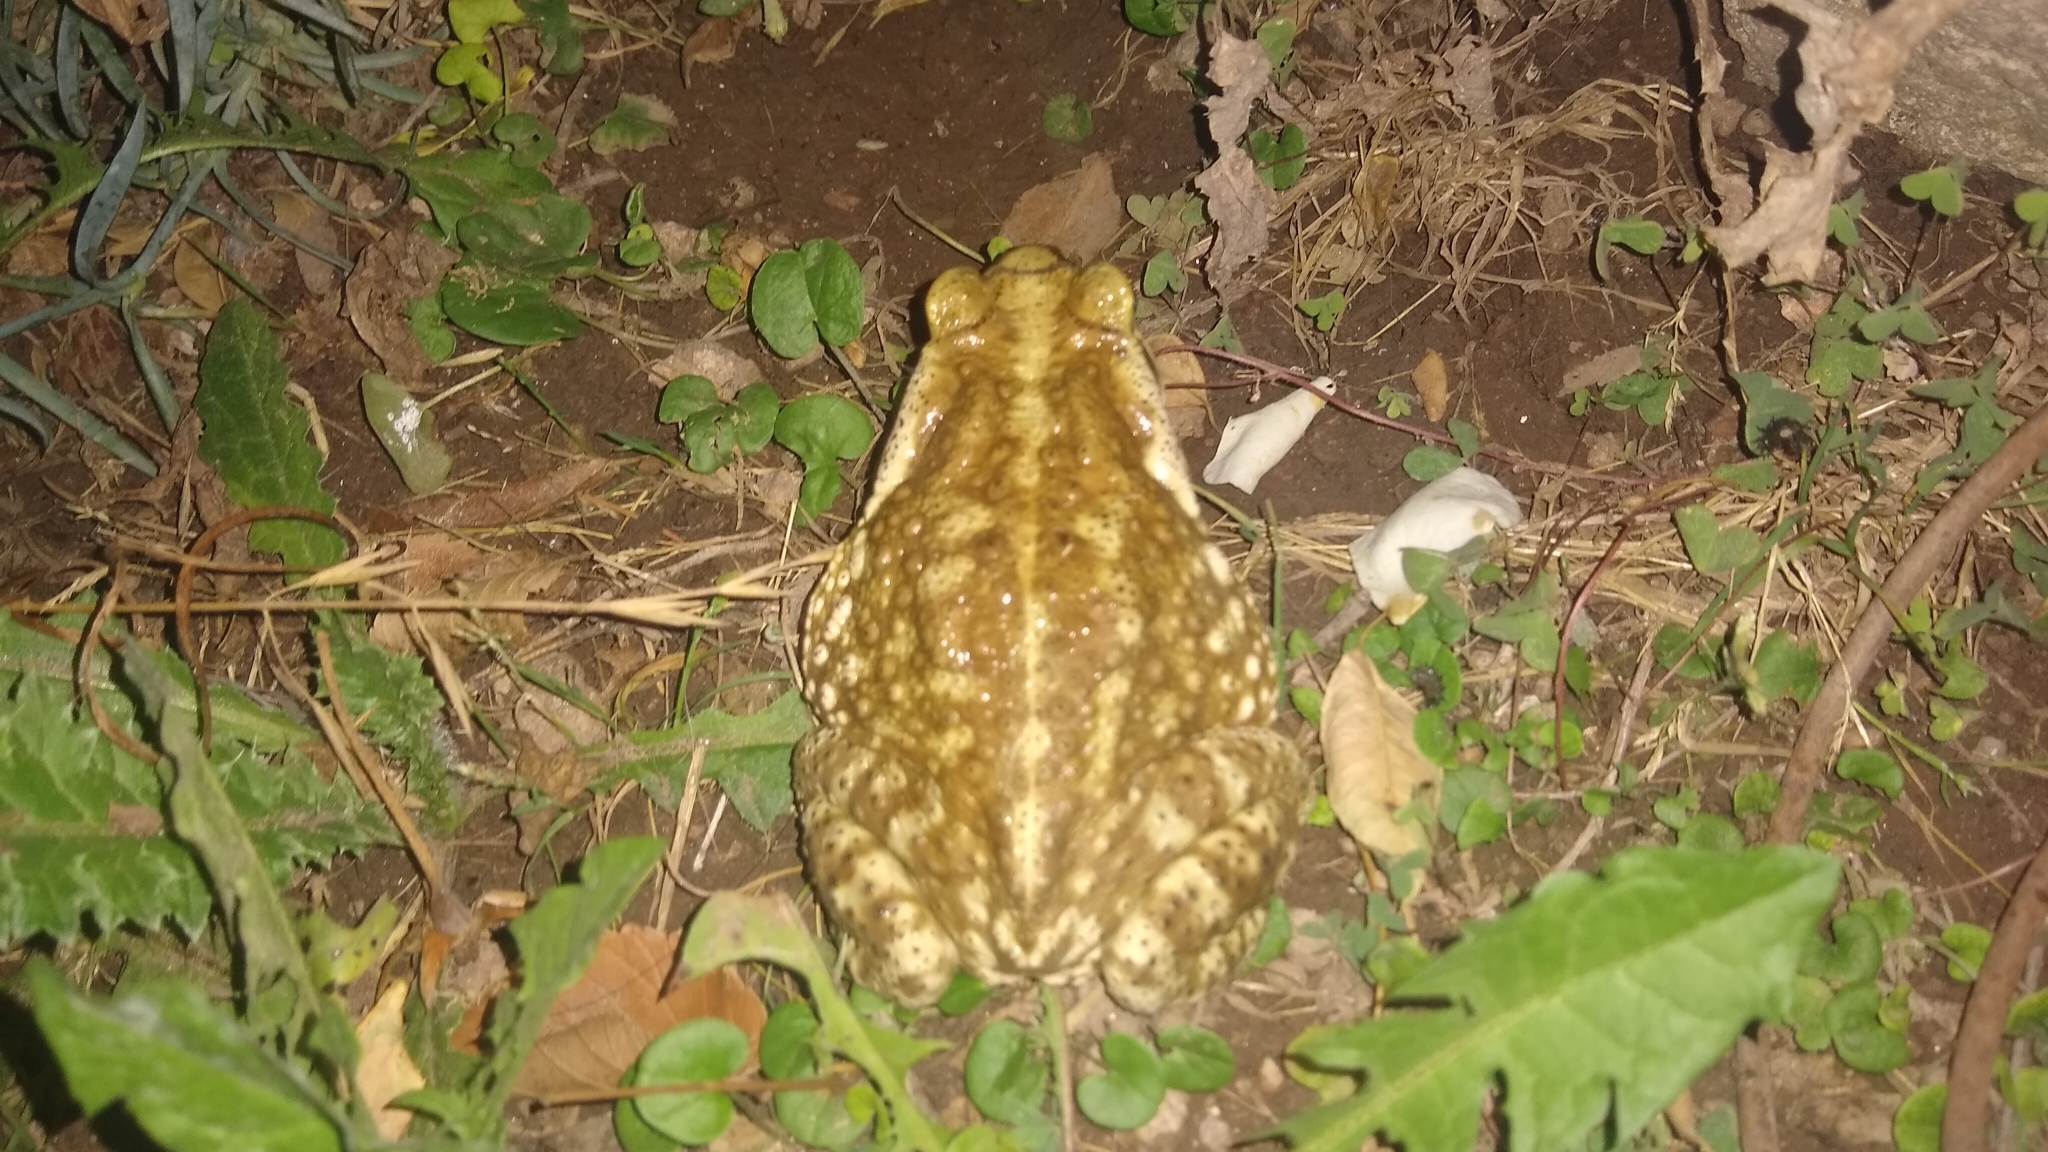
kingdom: Animalia
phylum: Chordata
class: Amphibia
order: Anura
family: Bufonidae
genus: Rhinella
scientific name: Rhinella arenarum
